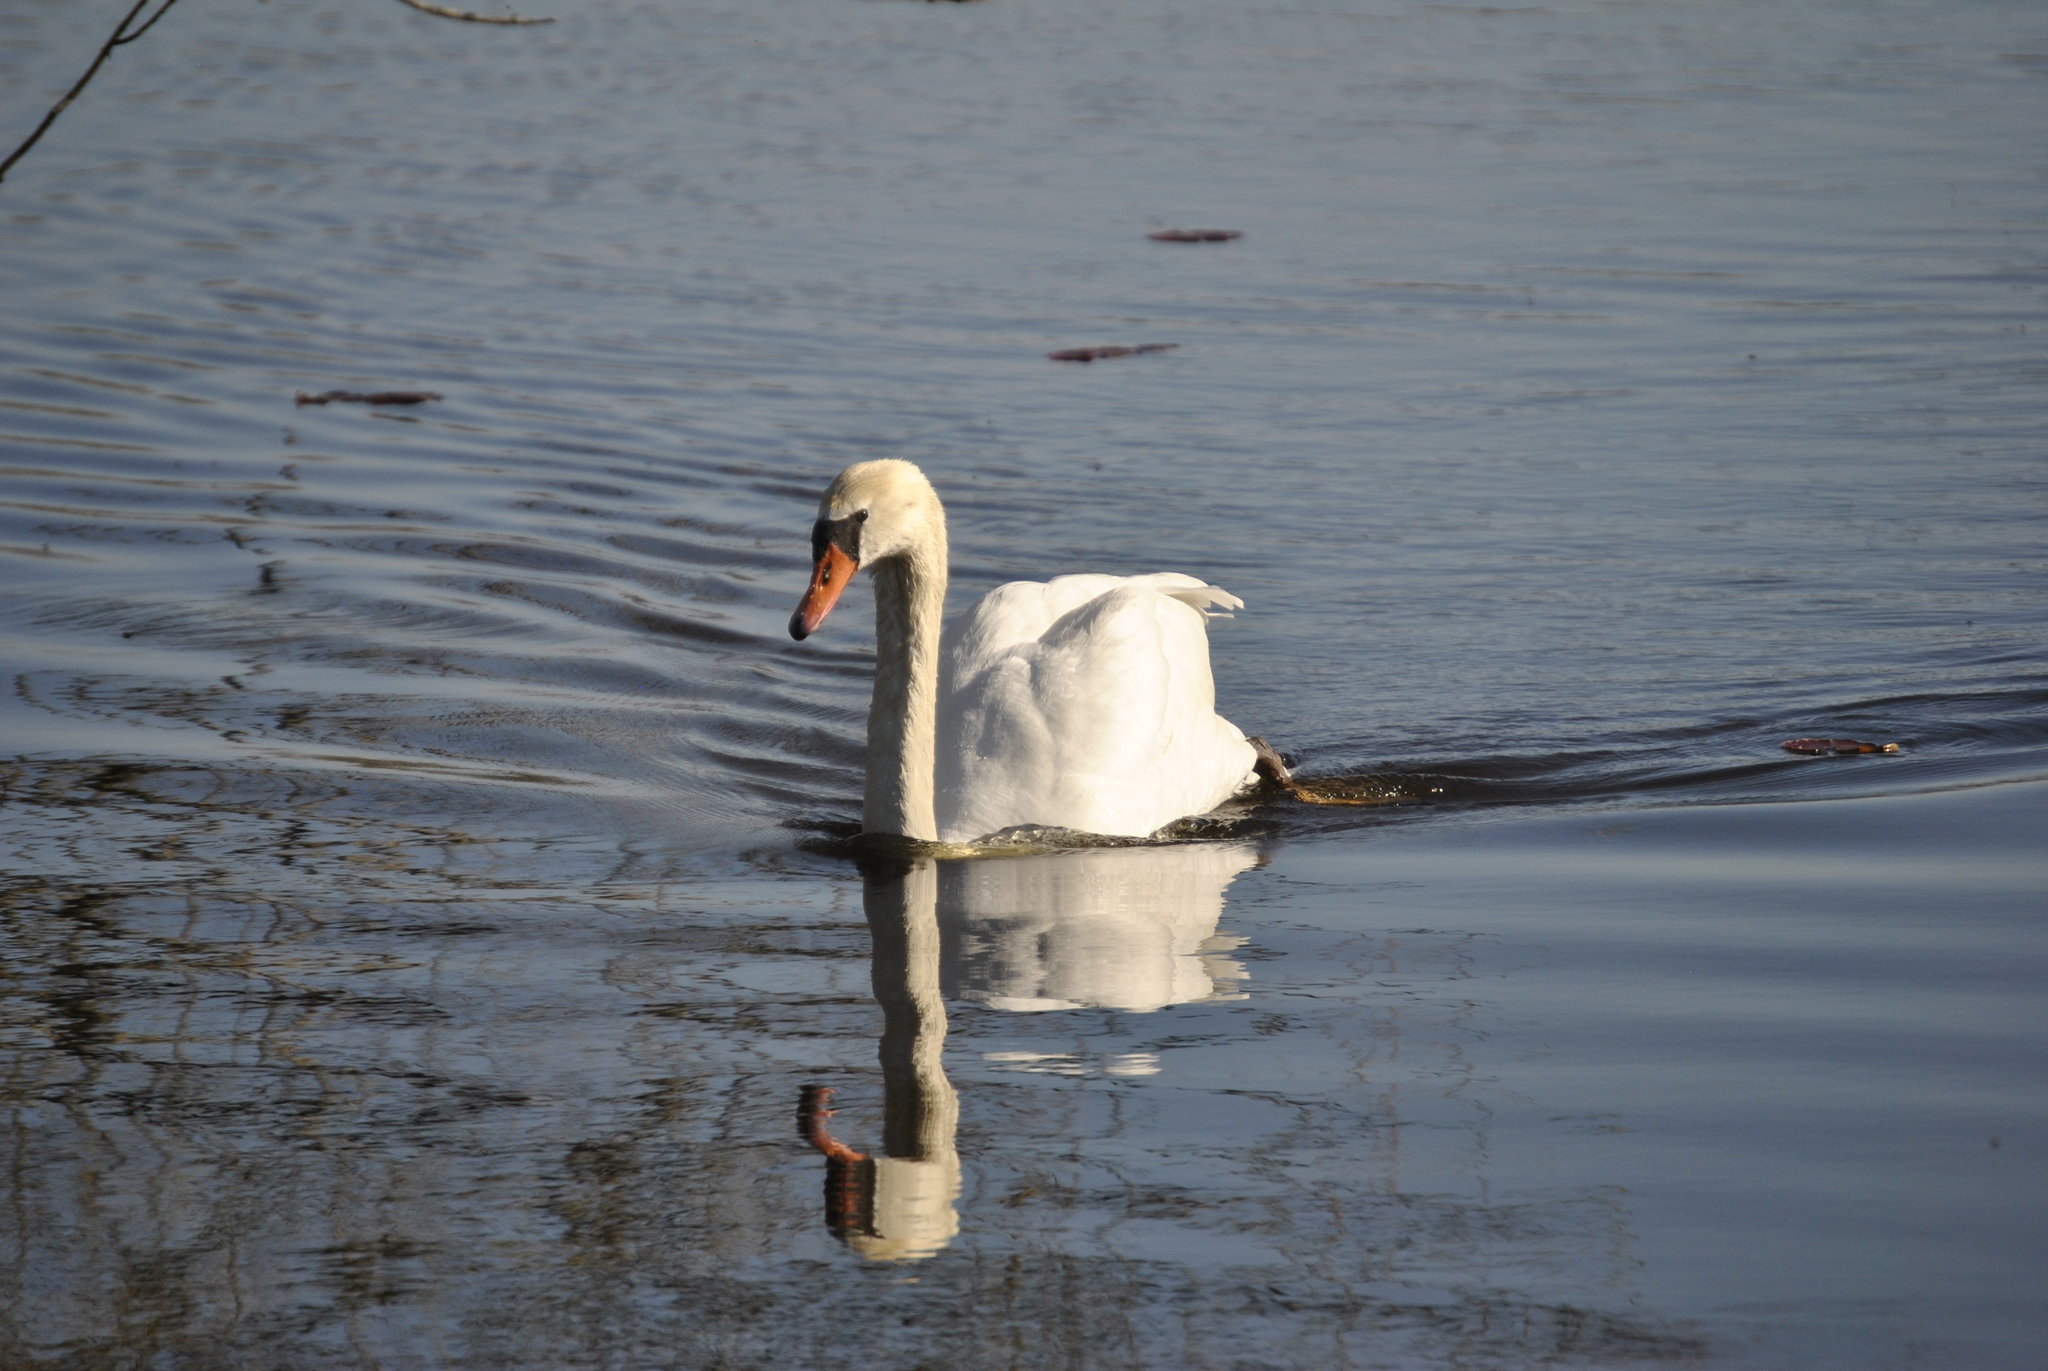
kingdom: Animalia
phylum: Chordata
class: Aves
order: Anseriformes
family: Anatidae
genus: Cygnus
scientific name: Cygnus olor
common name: Mute swan
